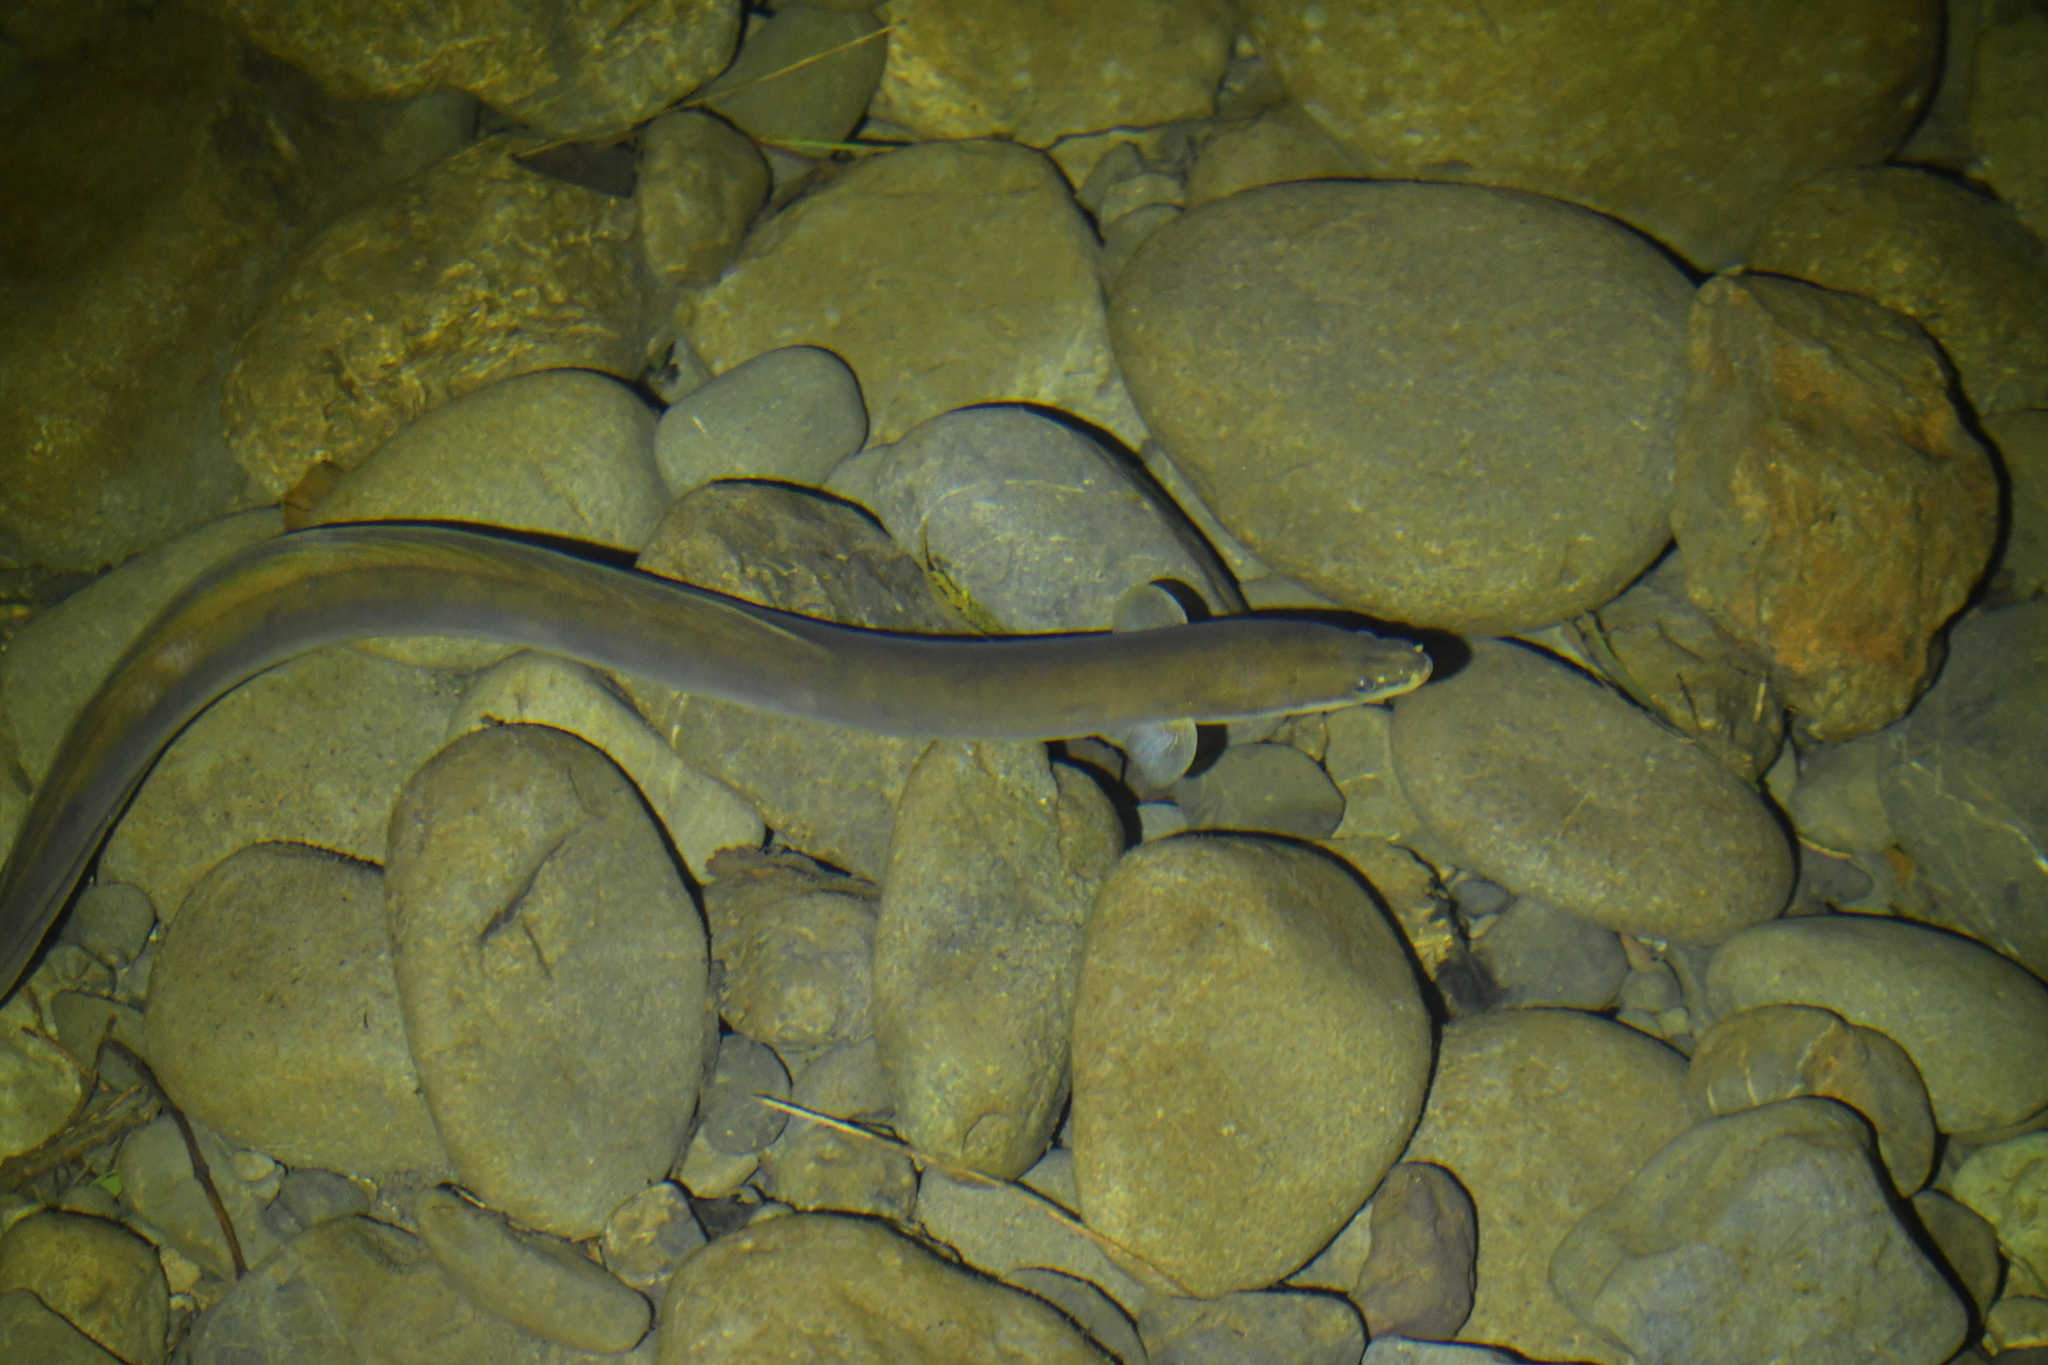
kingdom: Animalia
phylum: Chordata
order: Anguilliformes
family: Anguillidae
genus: Anguilla
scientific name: Anguilla australis
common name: Shortfin eel
